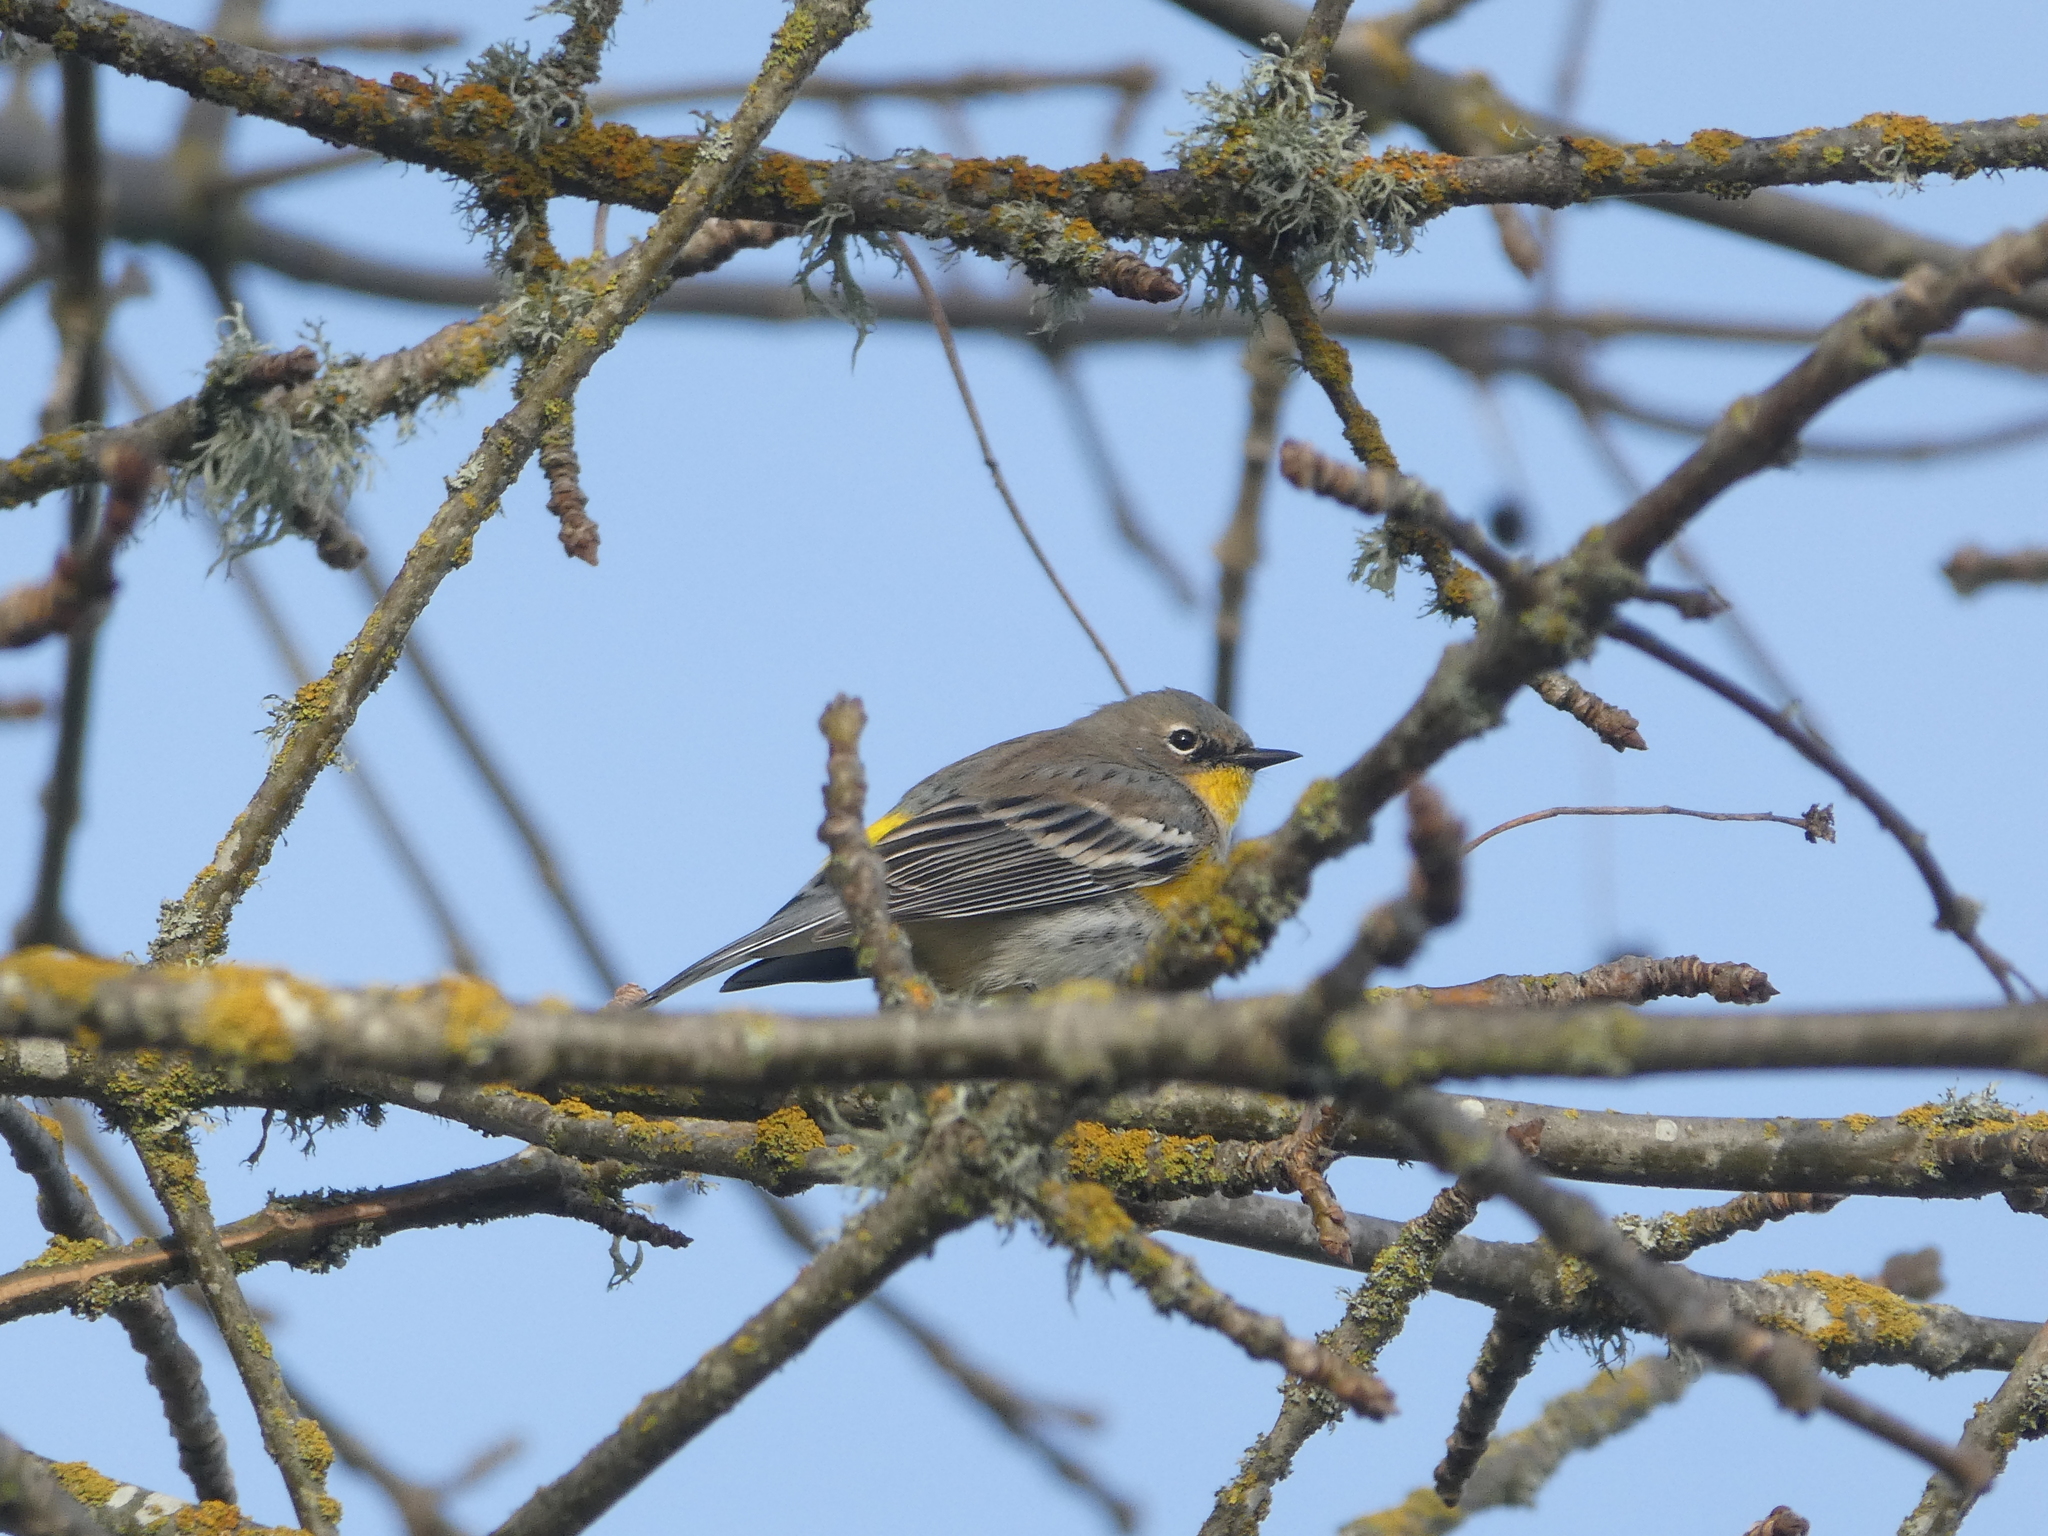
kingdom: Animalia
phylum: Chordata
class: Aves
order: Passeriformes
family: Parulidae
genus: Setophaga
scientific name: Setophaga coronata
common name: Myrtle warbler
